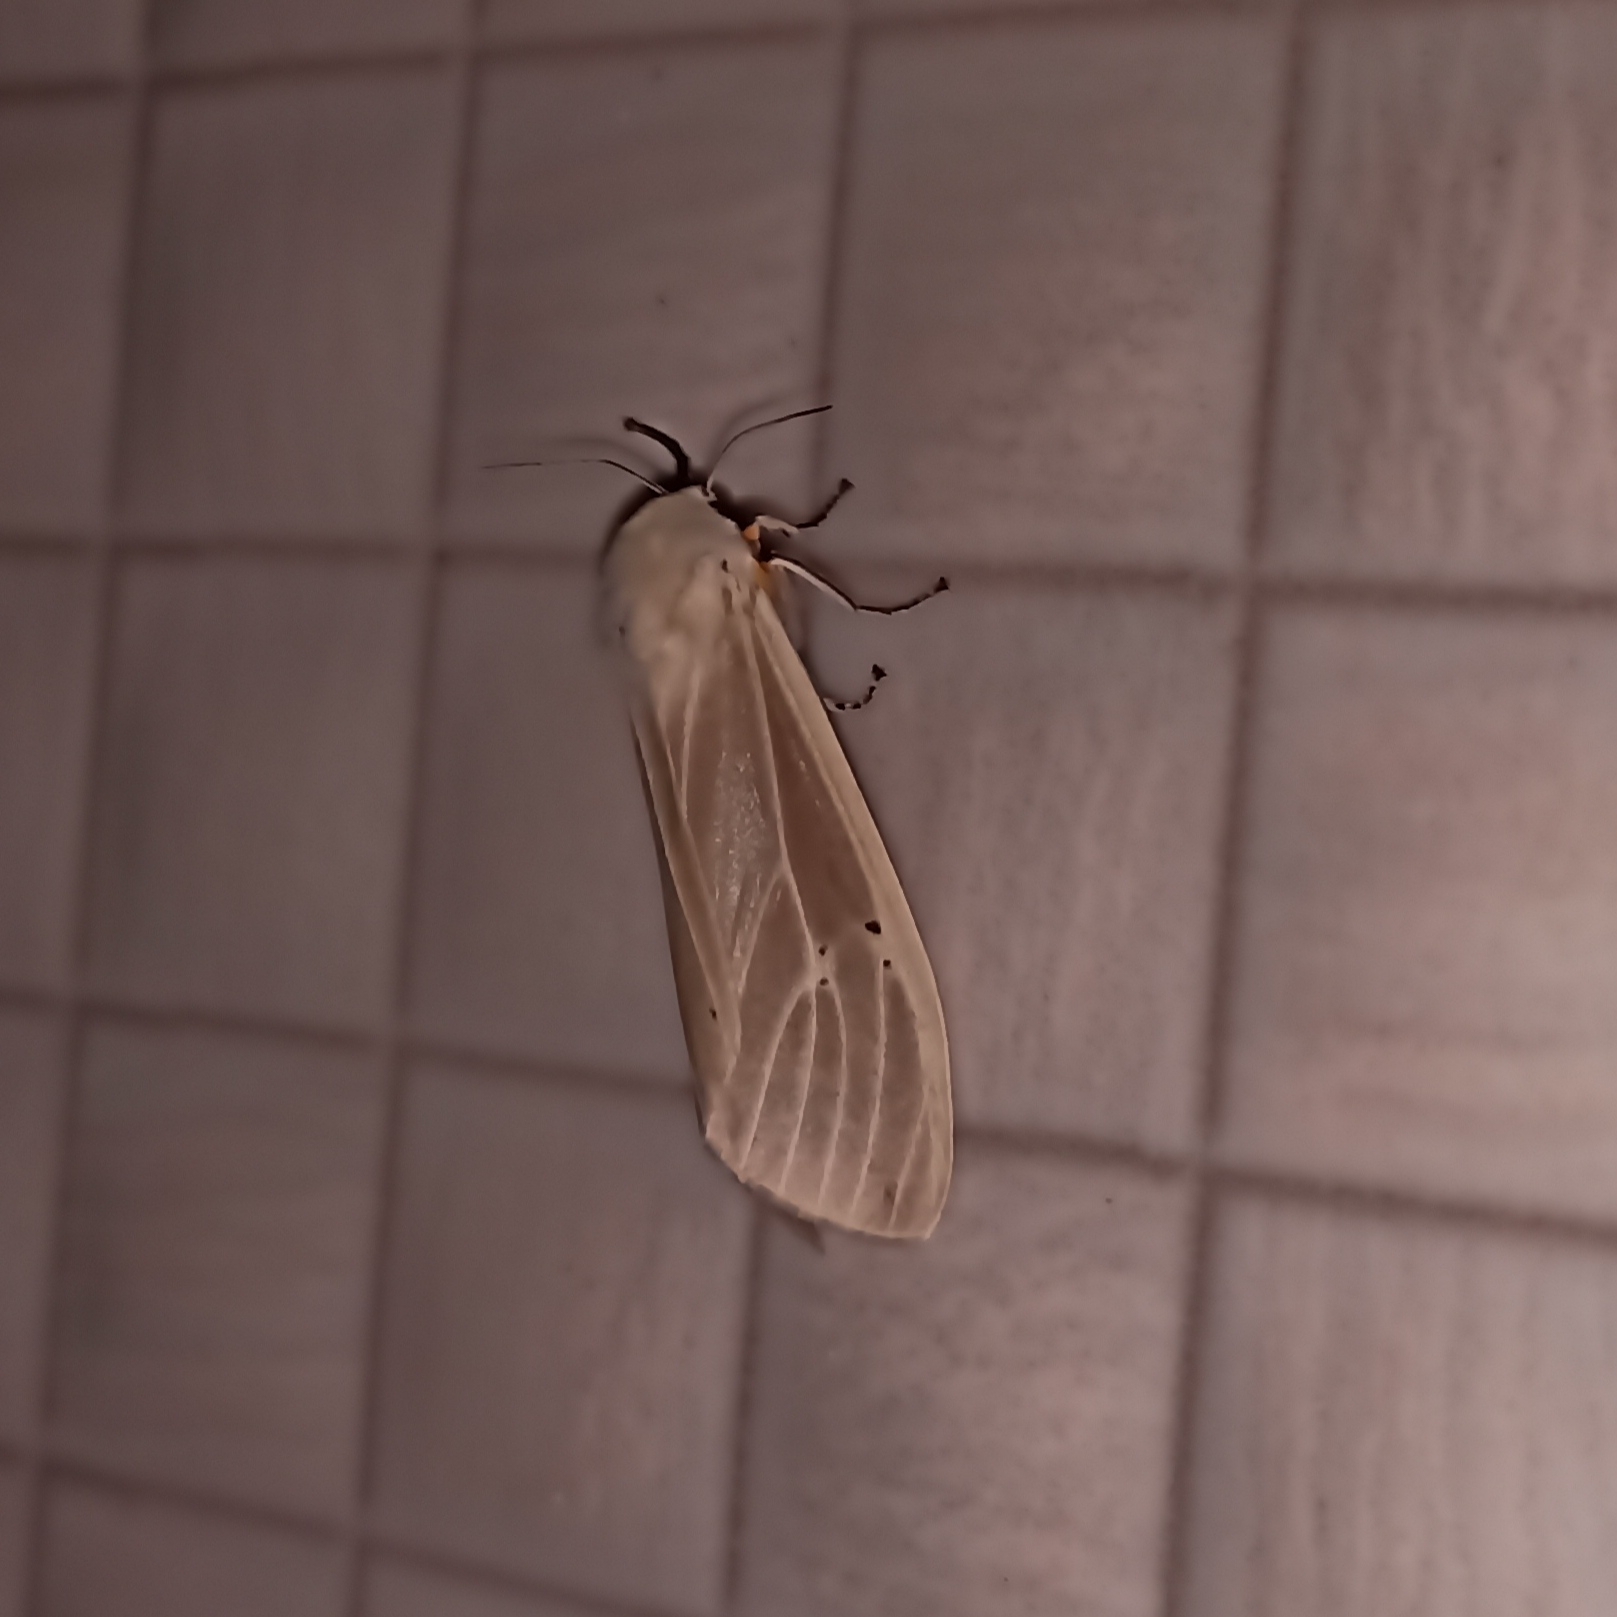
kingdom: Animalia
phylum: Arthropoda
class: Insecta
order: Lepidoptera
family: Erebidae
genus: Creatonotos
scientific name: Creatonotos transiens
